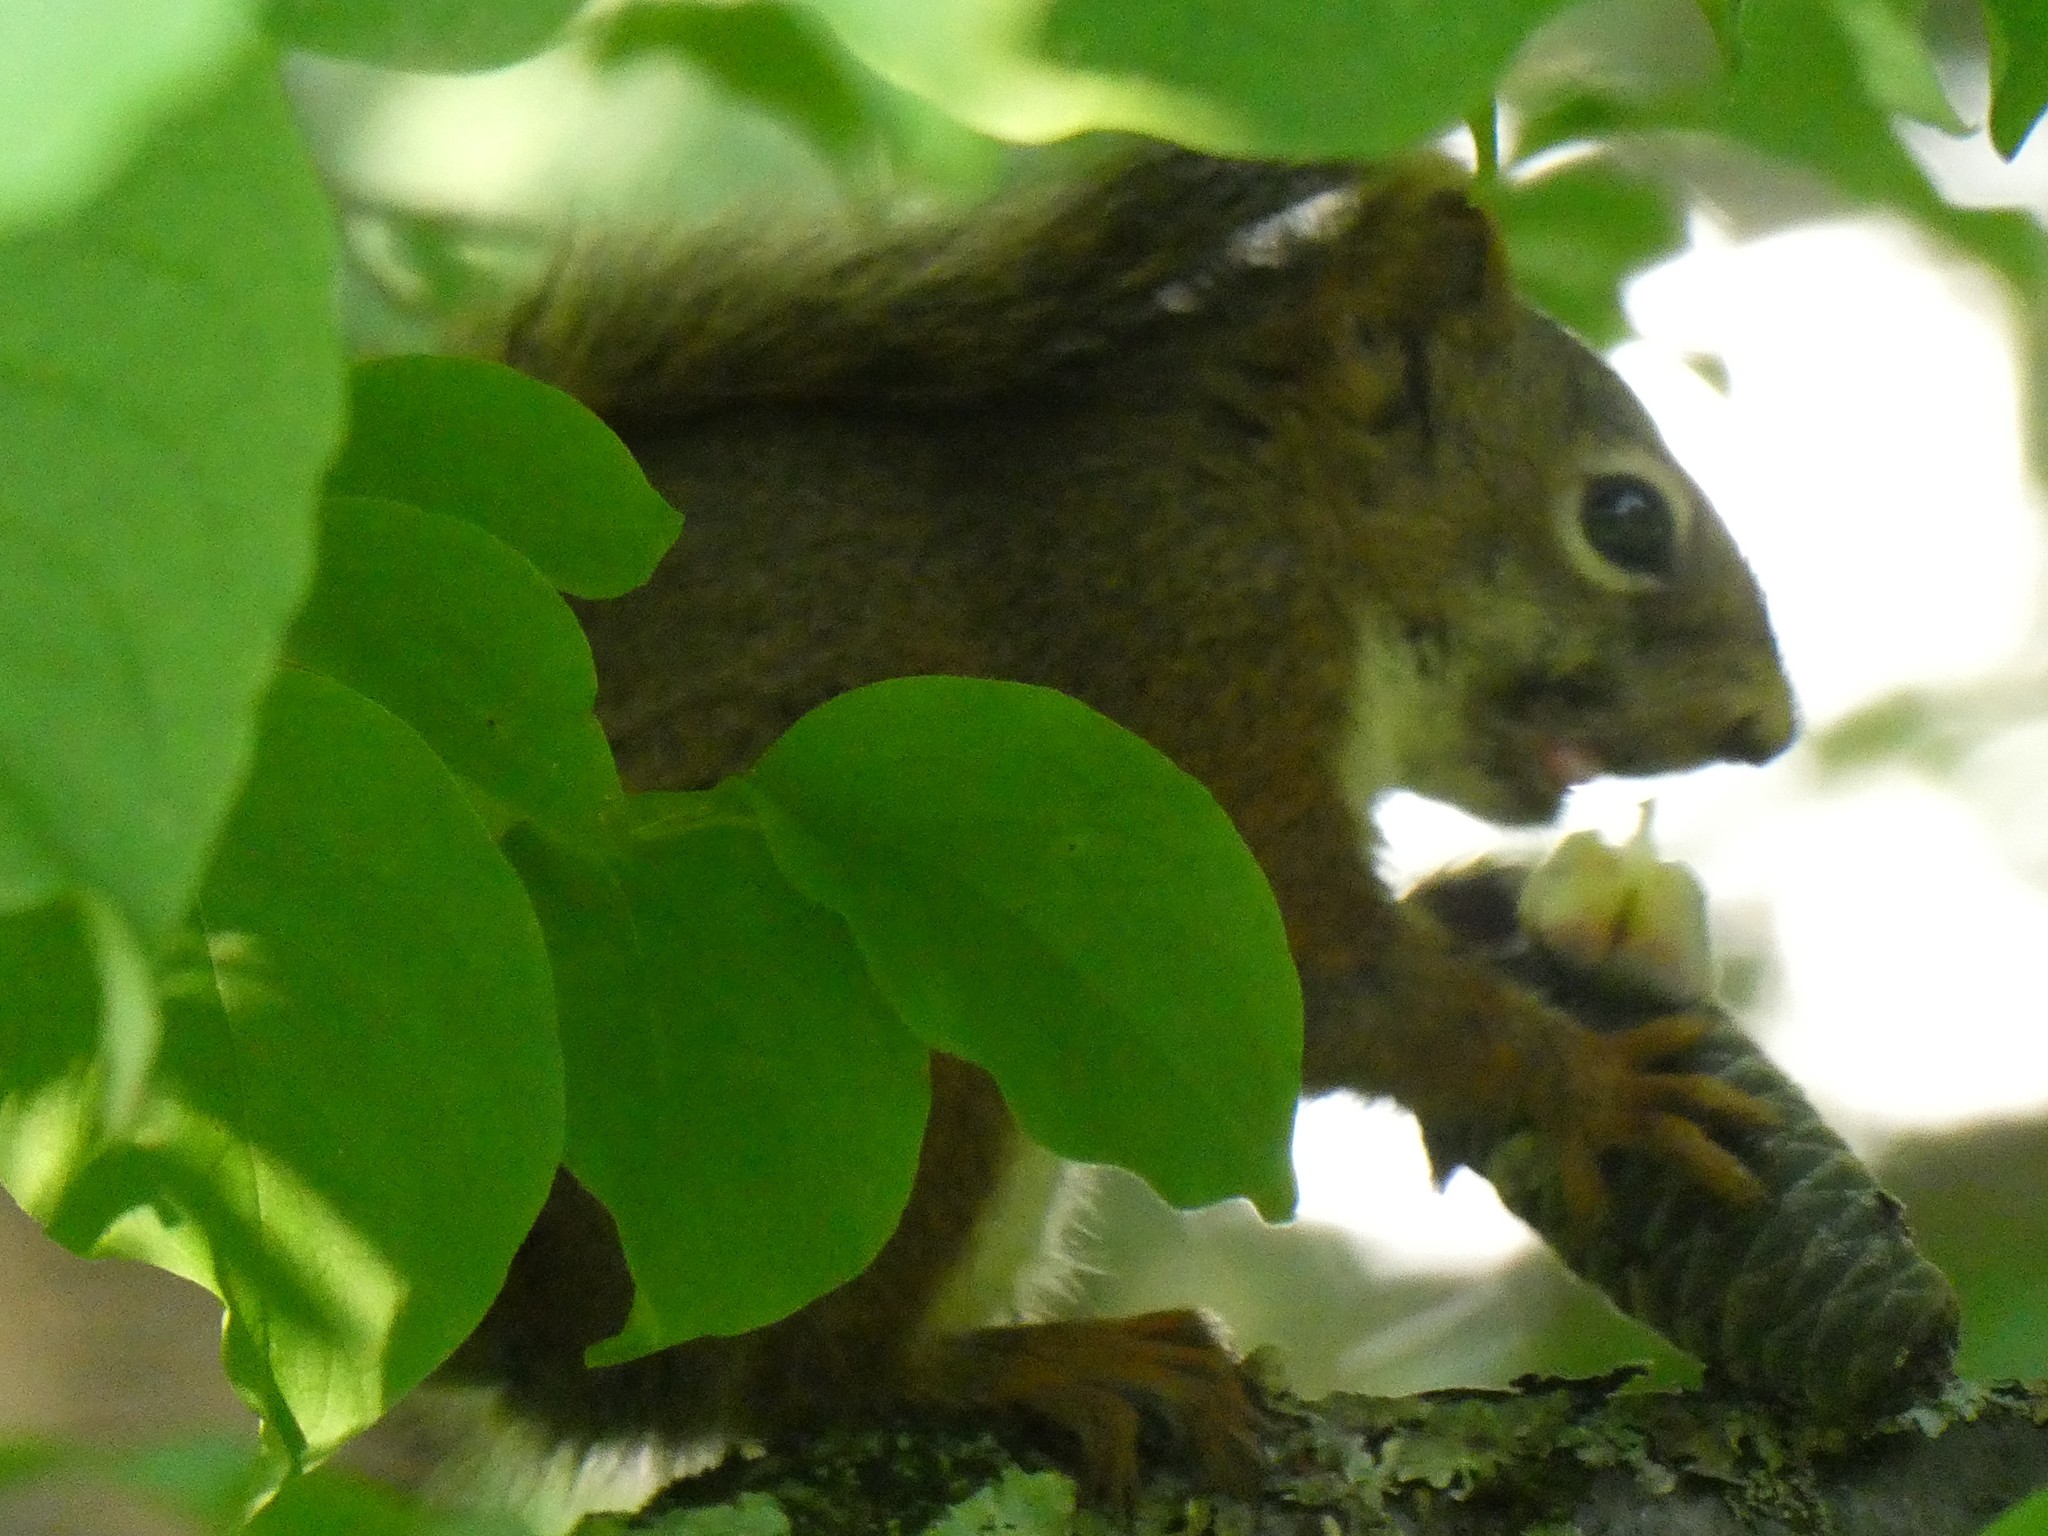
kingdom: Animalia
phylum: Chordata
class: Mammalia
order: Rodentia
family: Sciuridae
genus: Tamiasciurus
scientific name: Tamiasciurus hudsonicus
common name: Red squirrel
